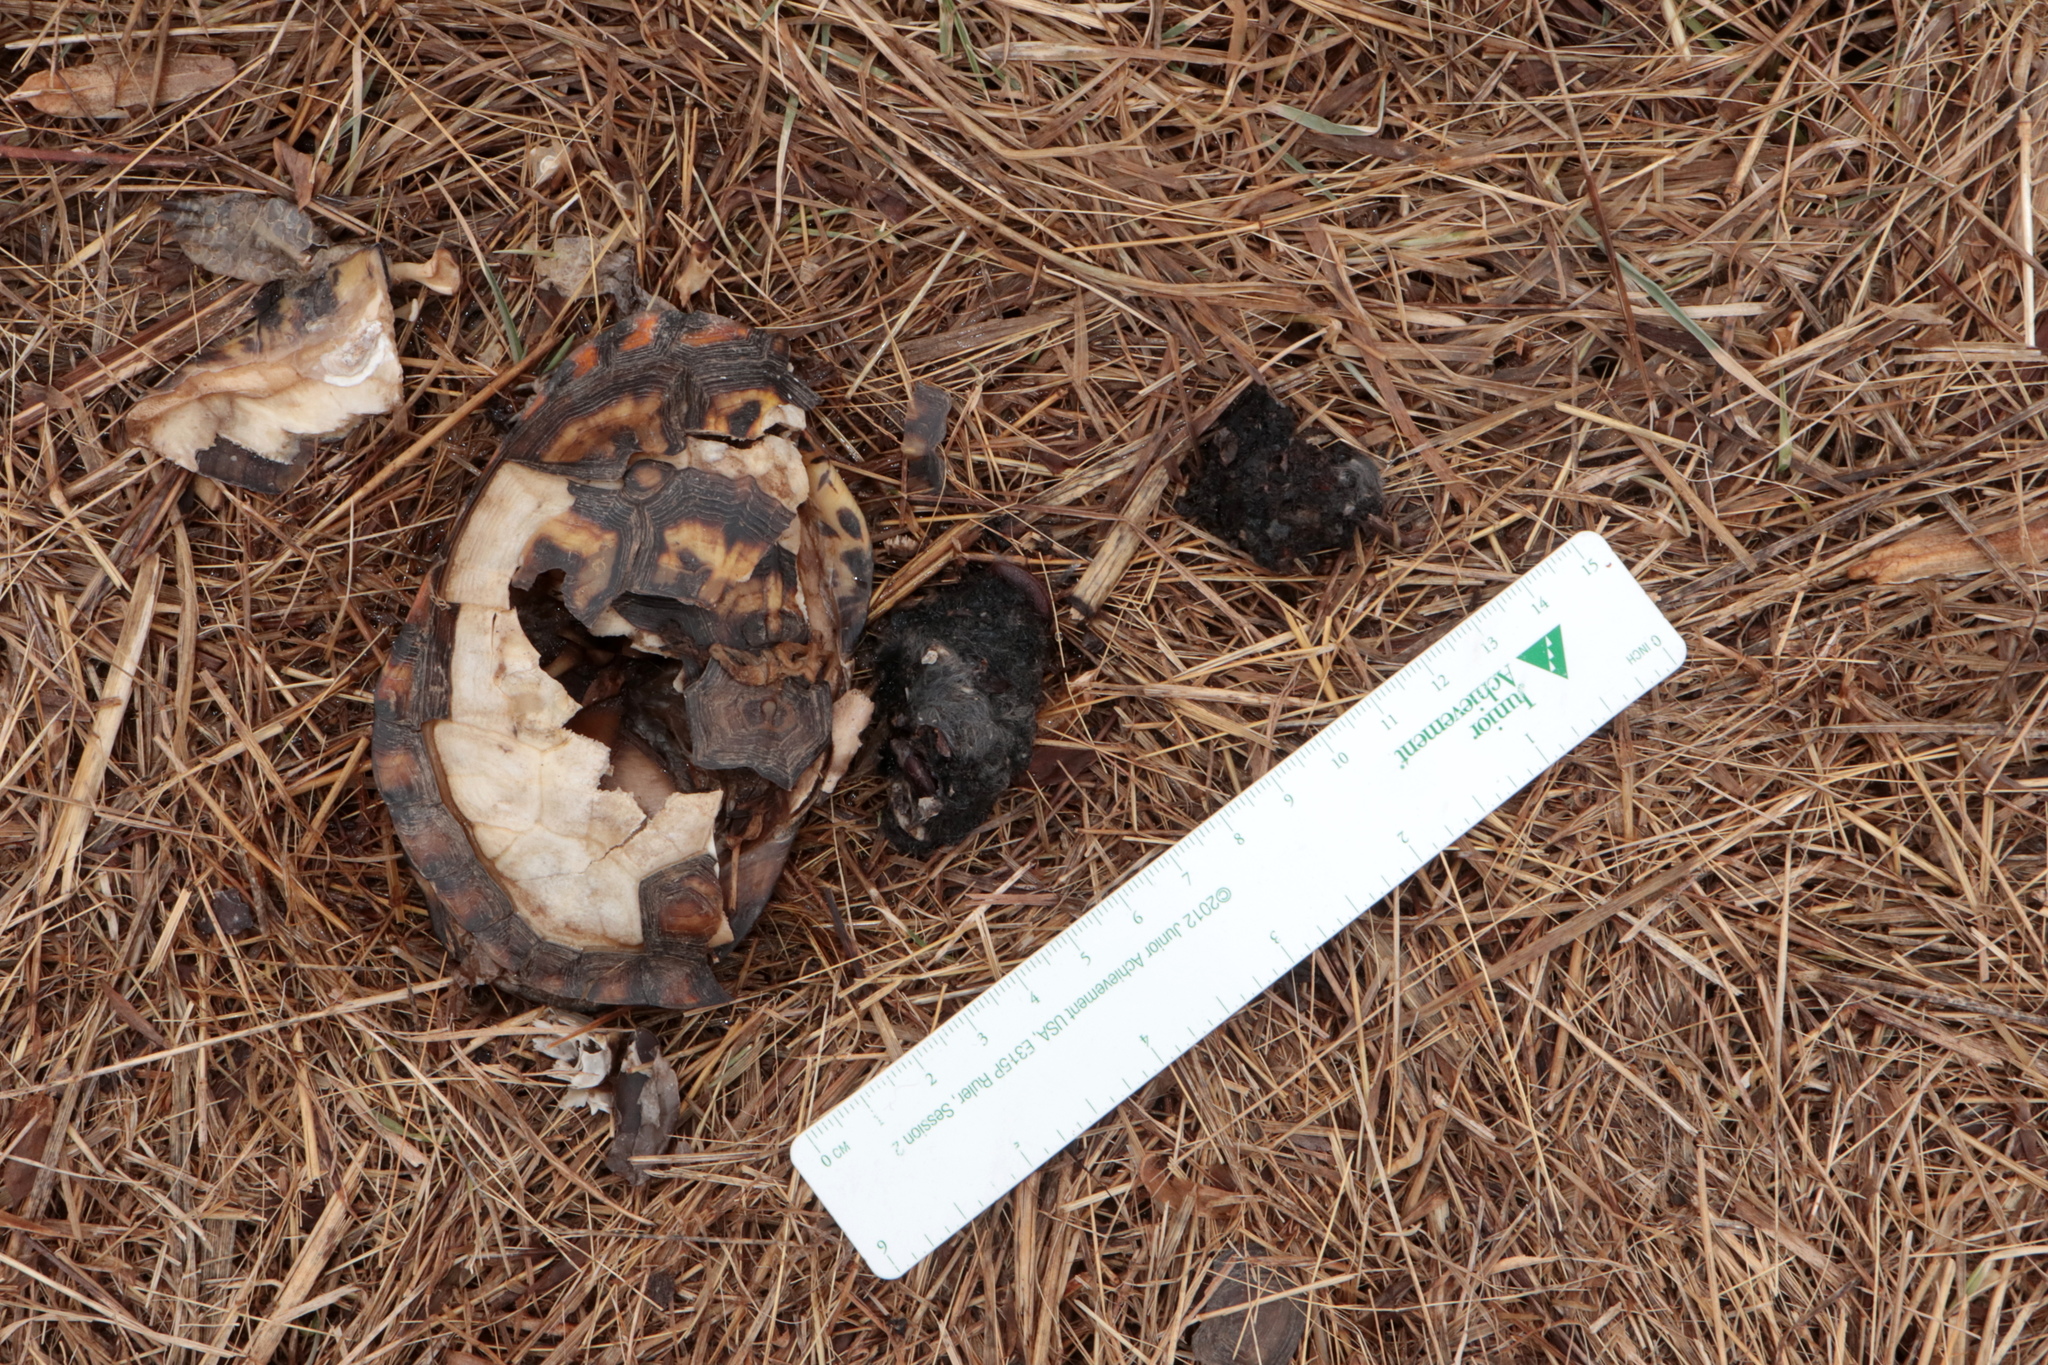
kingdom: Animalia
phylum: Chordata
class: Testudines
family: Emydidae
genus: Terrapene
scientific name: Terrapene carolina
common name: Common box turtle
